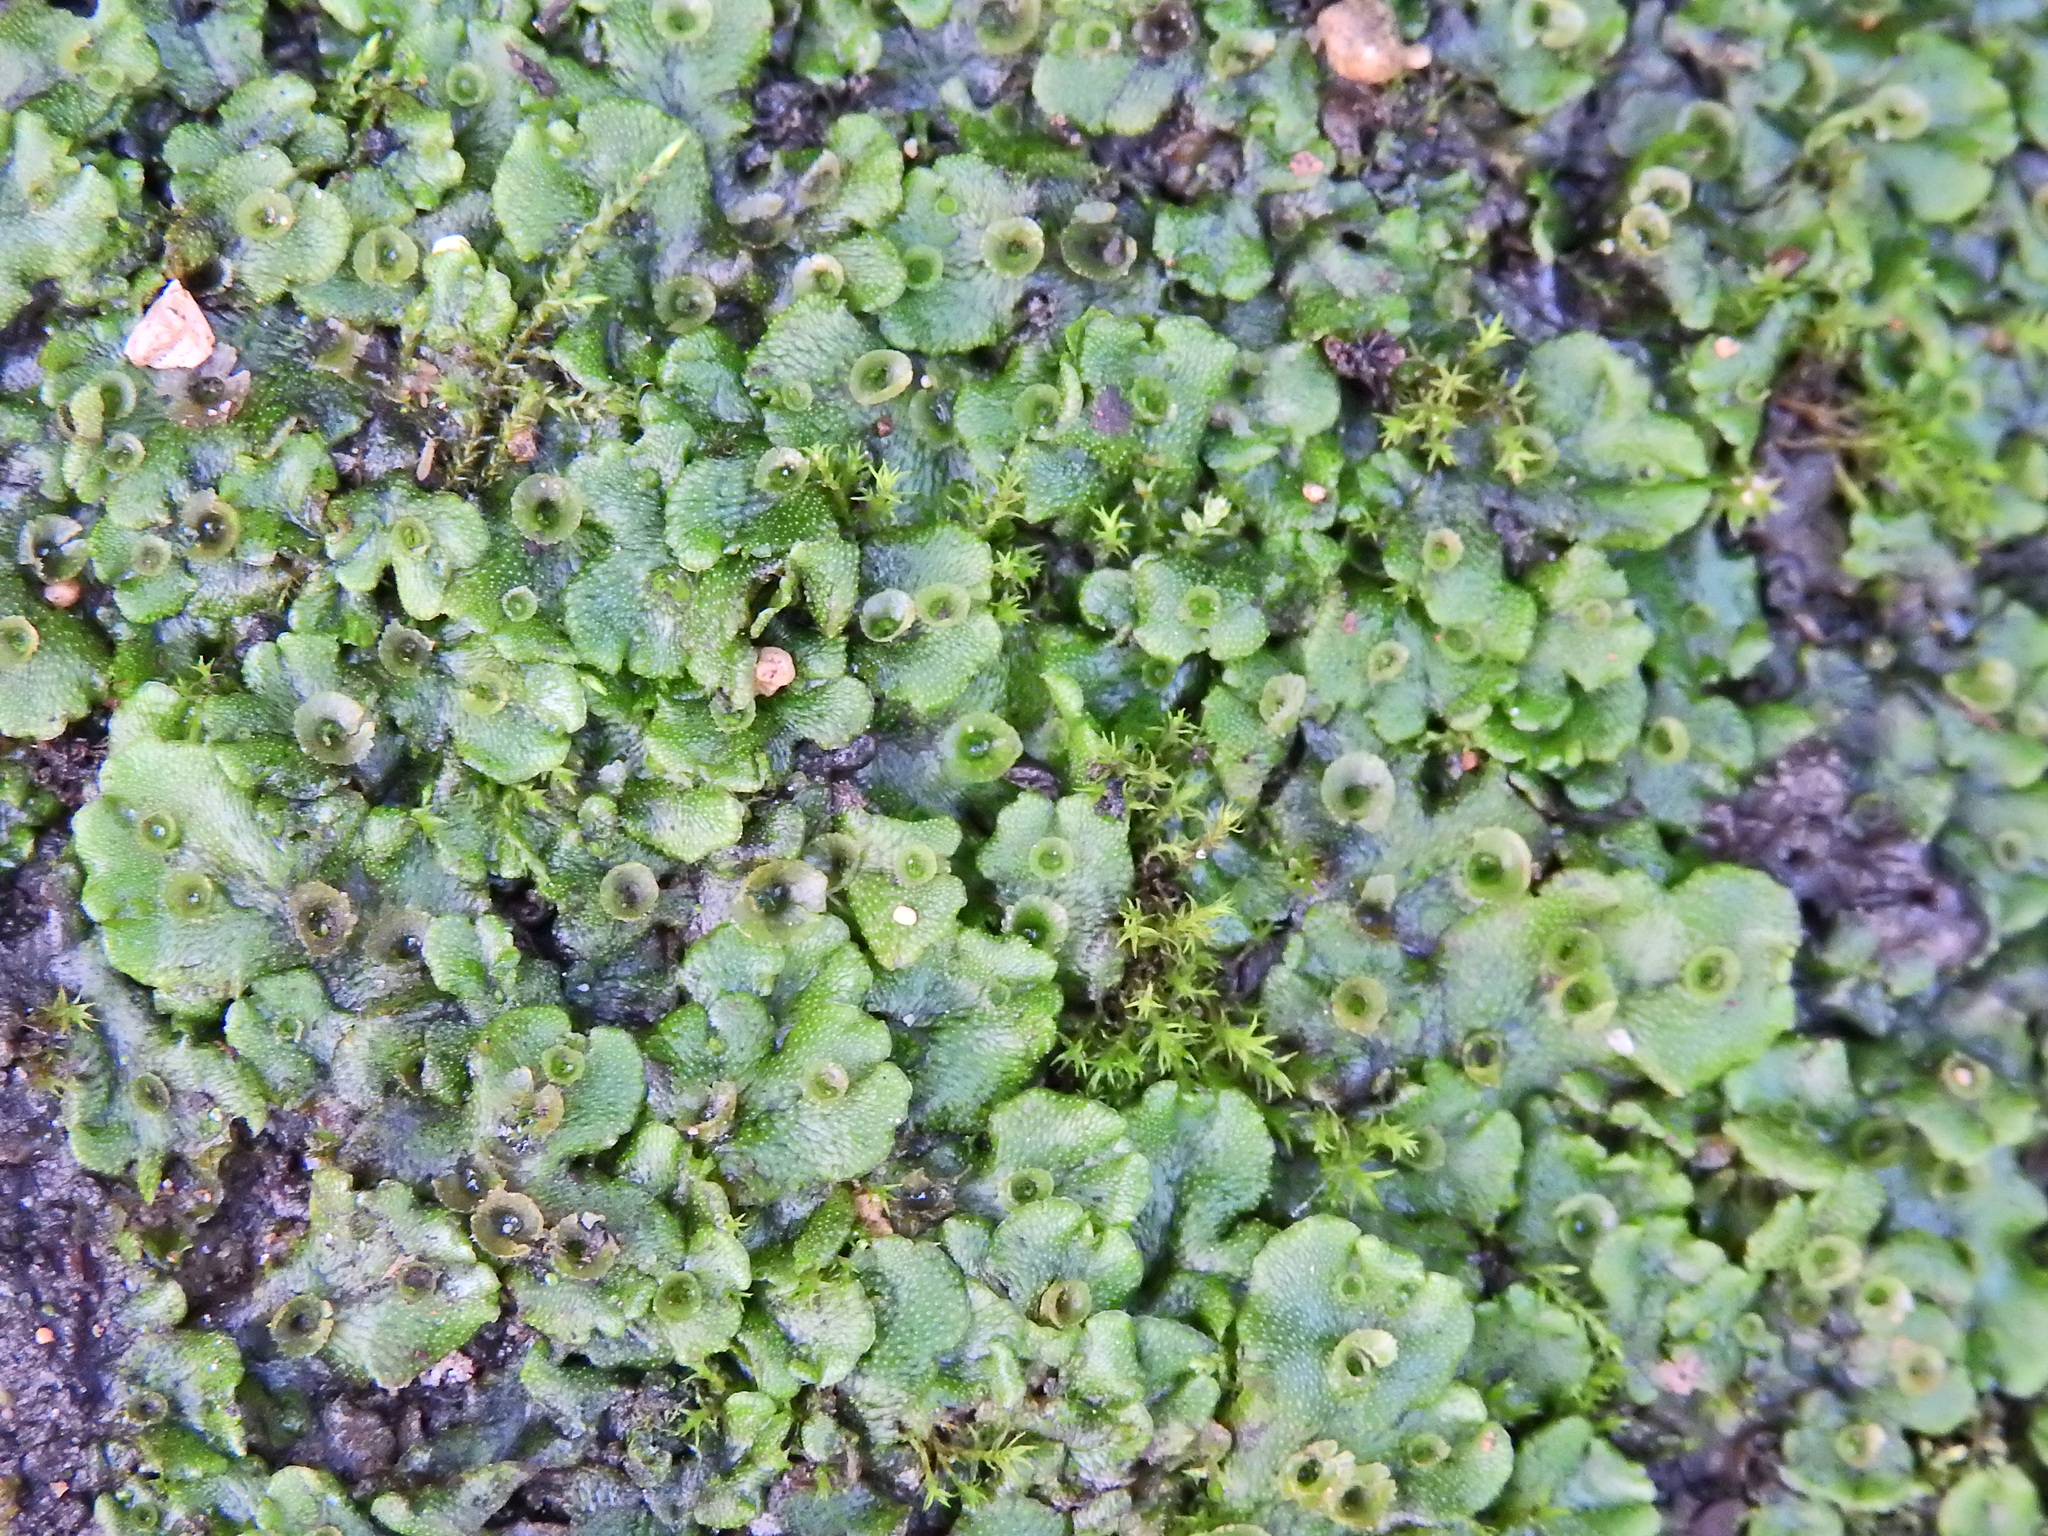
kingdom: Plantae
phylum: Marchantiophyta
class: Marchantiopsida
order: Marchantiales
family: Marchantiaceae
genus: Marchantia
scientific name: Marchantia polymorpha
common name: Common liverwort
